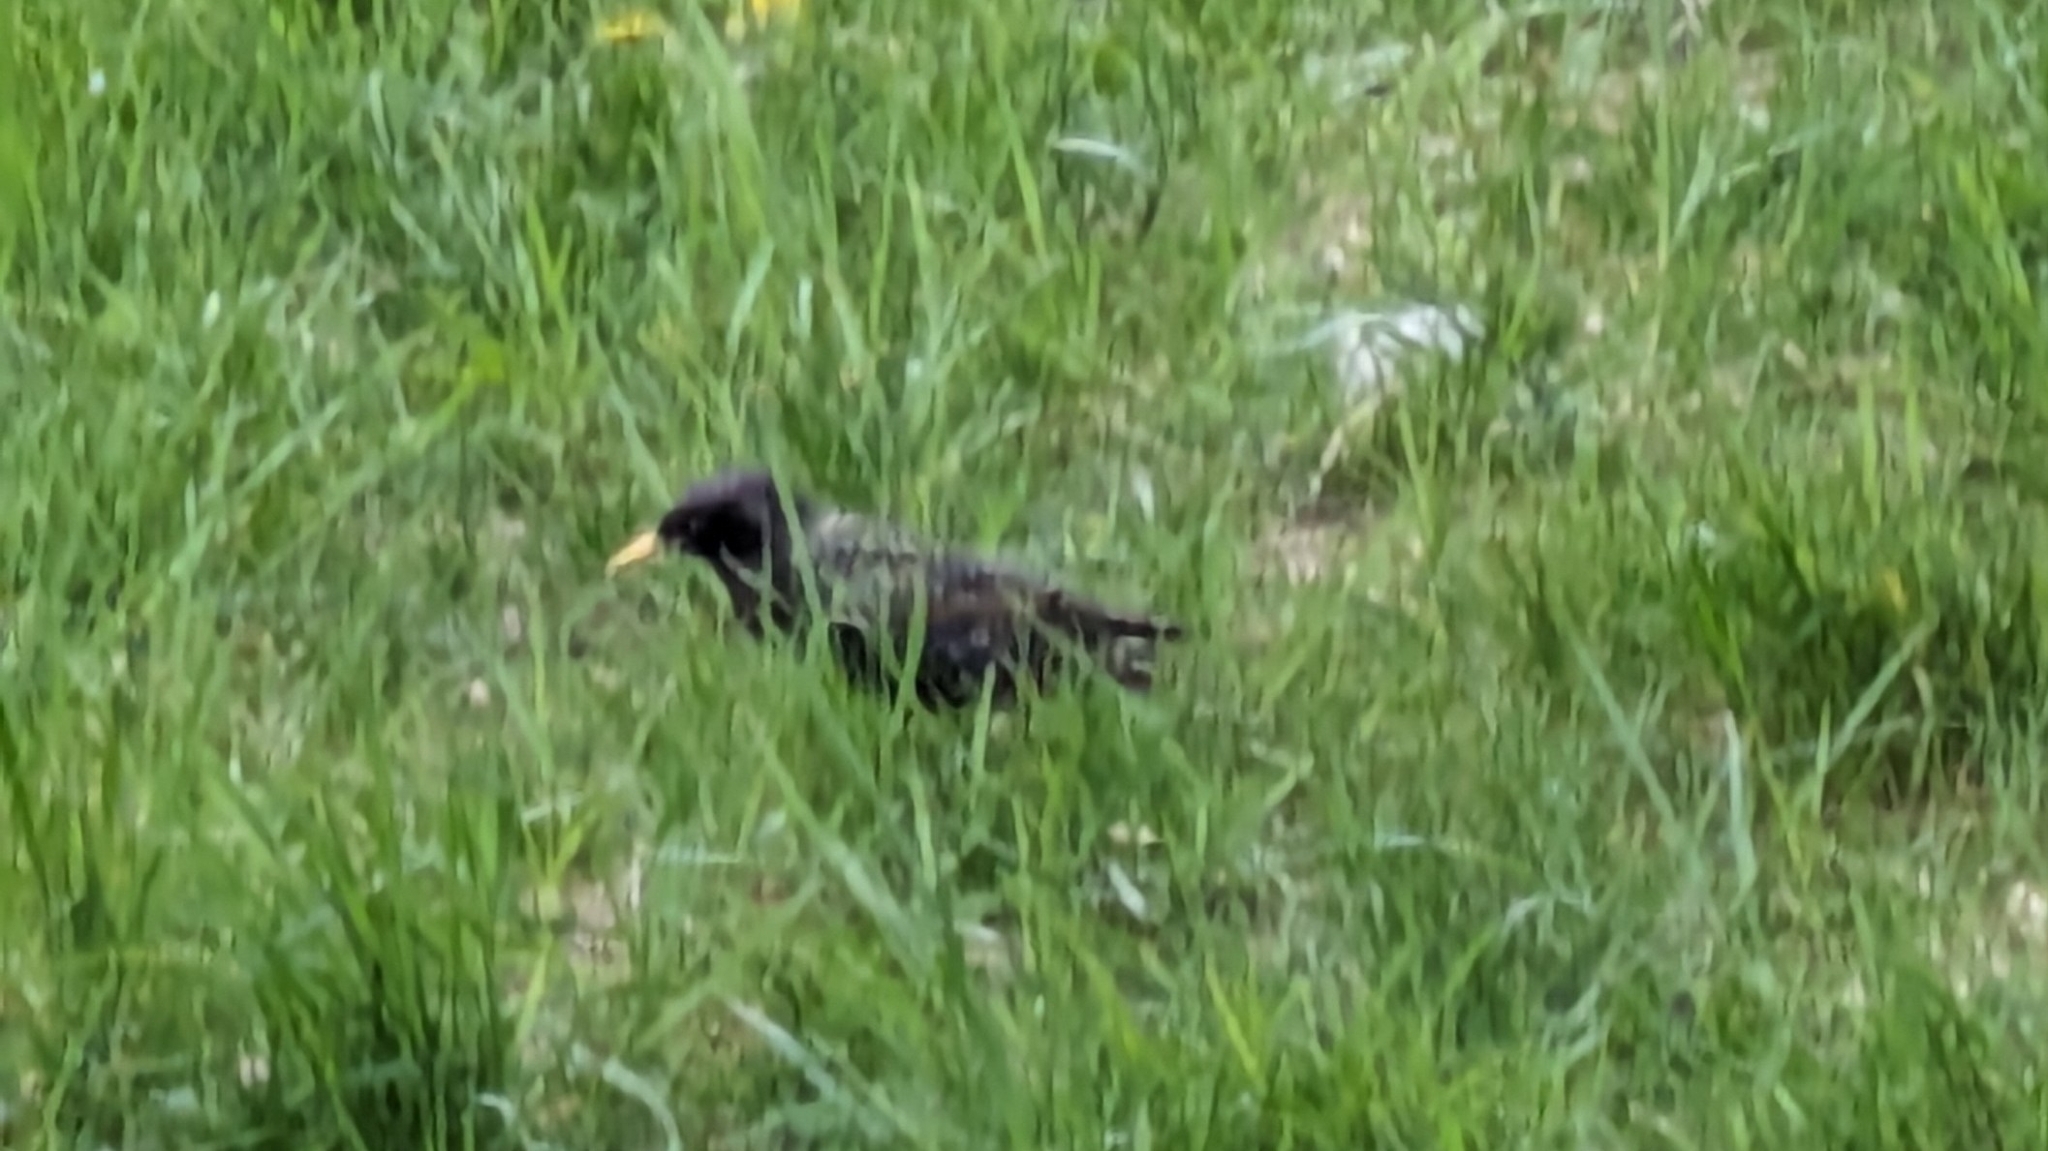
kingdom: Animalia
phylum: Chordata
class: Aves
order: Passeriformes
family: Sturnidae
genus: Sturnus
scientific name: Sturnus vulgaris
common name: Common starling
